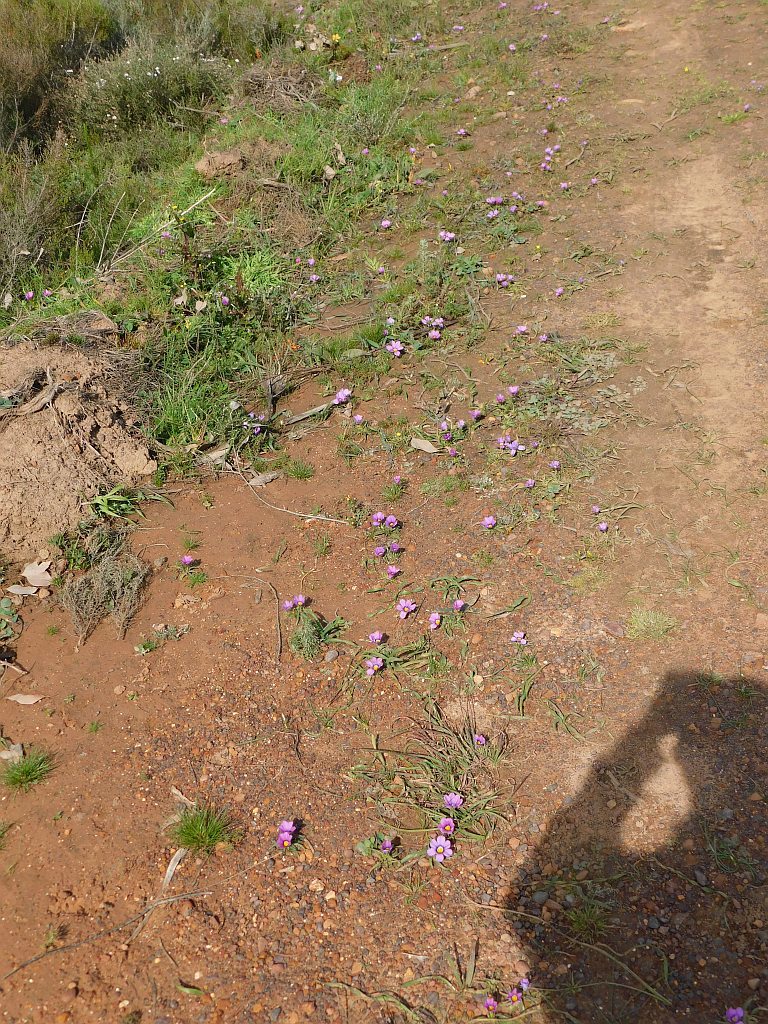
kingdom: Plantae
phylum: Tracheophyta
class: Liliopsida
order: Asparagales
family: Iridaceae
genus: Moraea
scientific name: Moraea barnardiella
